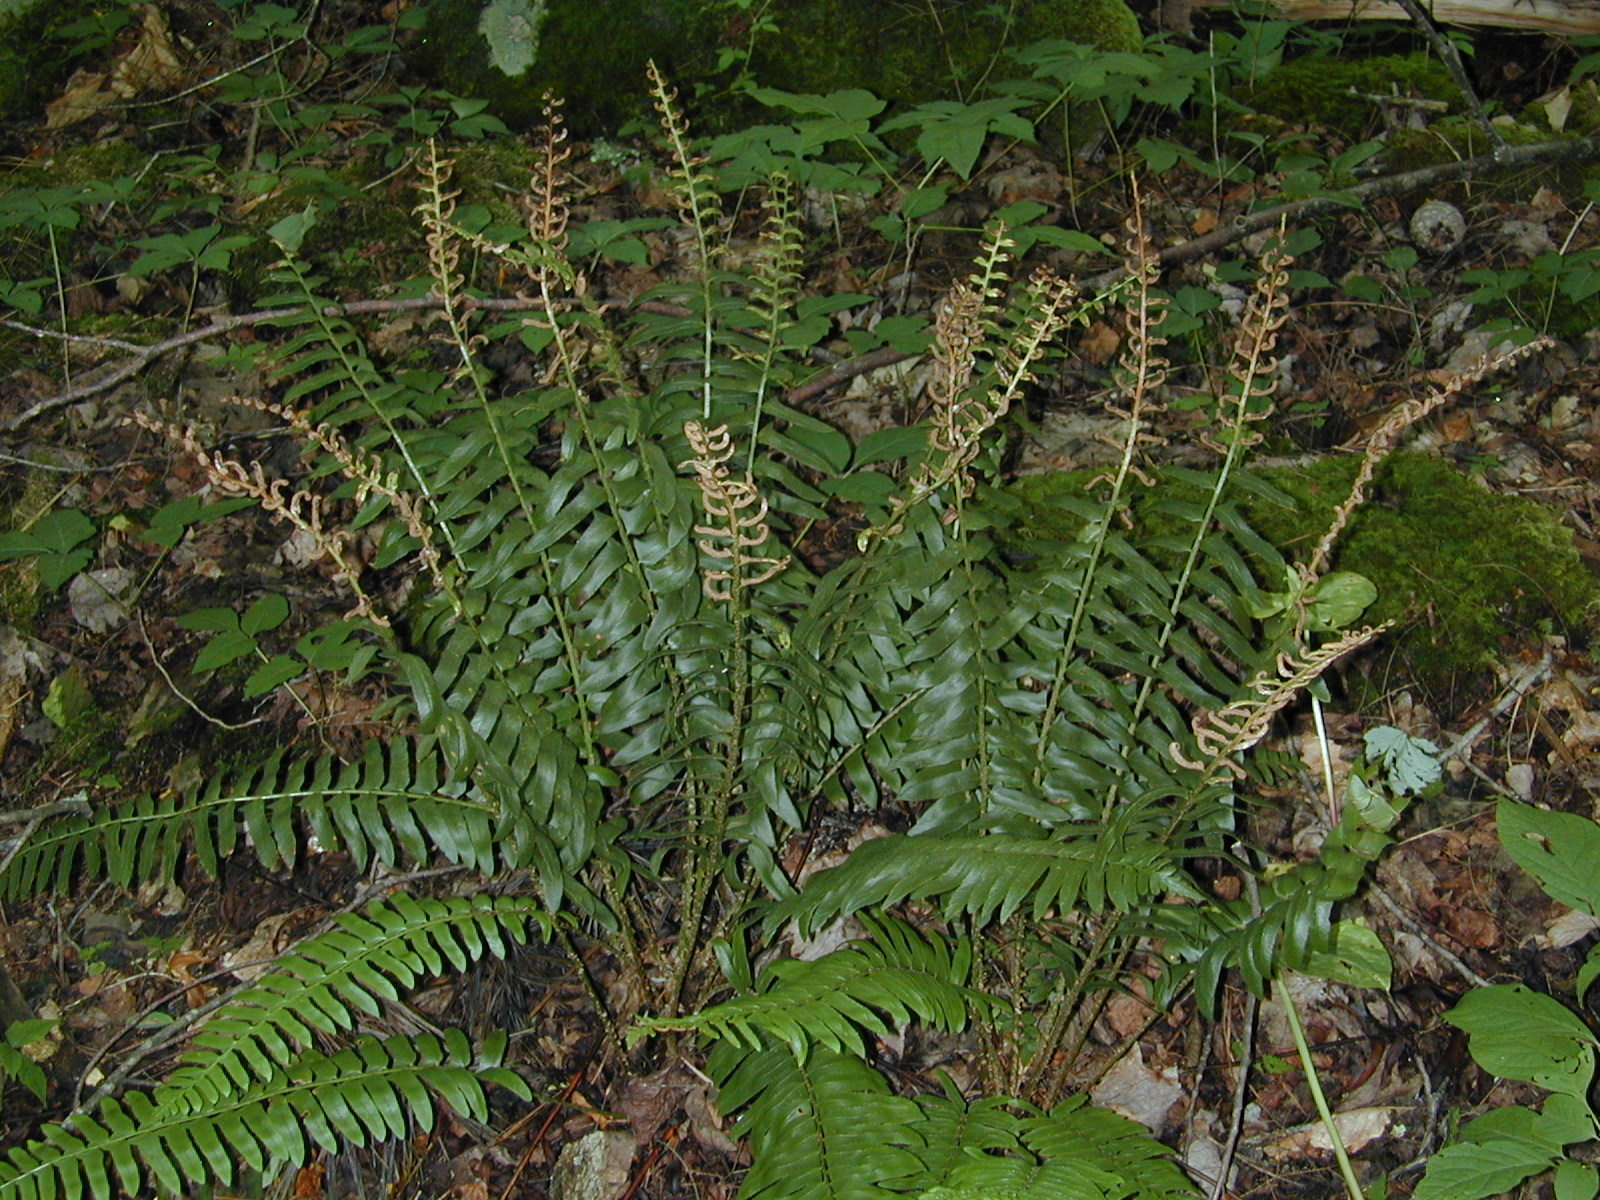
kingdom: Plantae
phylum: Tracheophyta
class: Polypodiopsida
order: Polypodiales
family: Dryopteridaceae
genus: Polystichum
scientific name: Polystichum acrostichoides
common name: Christmas fern
